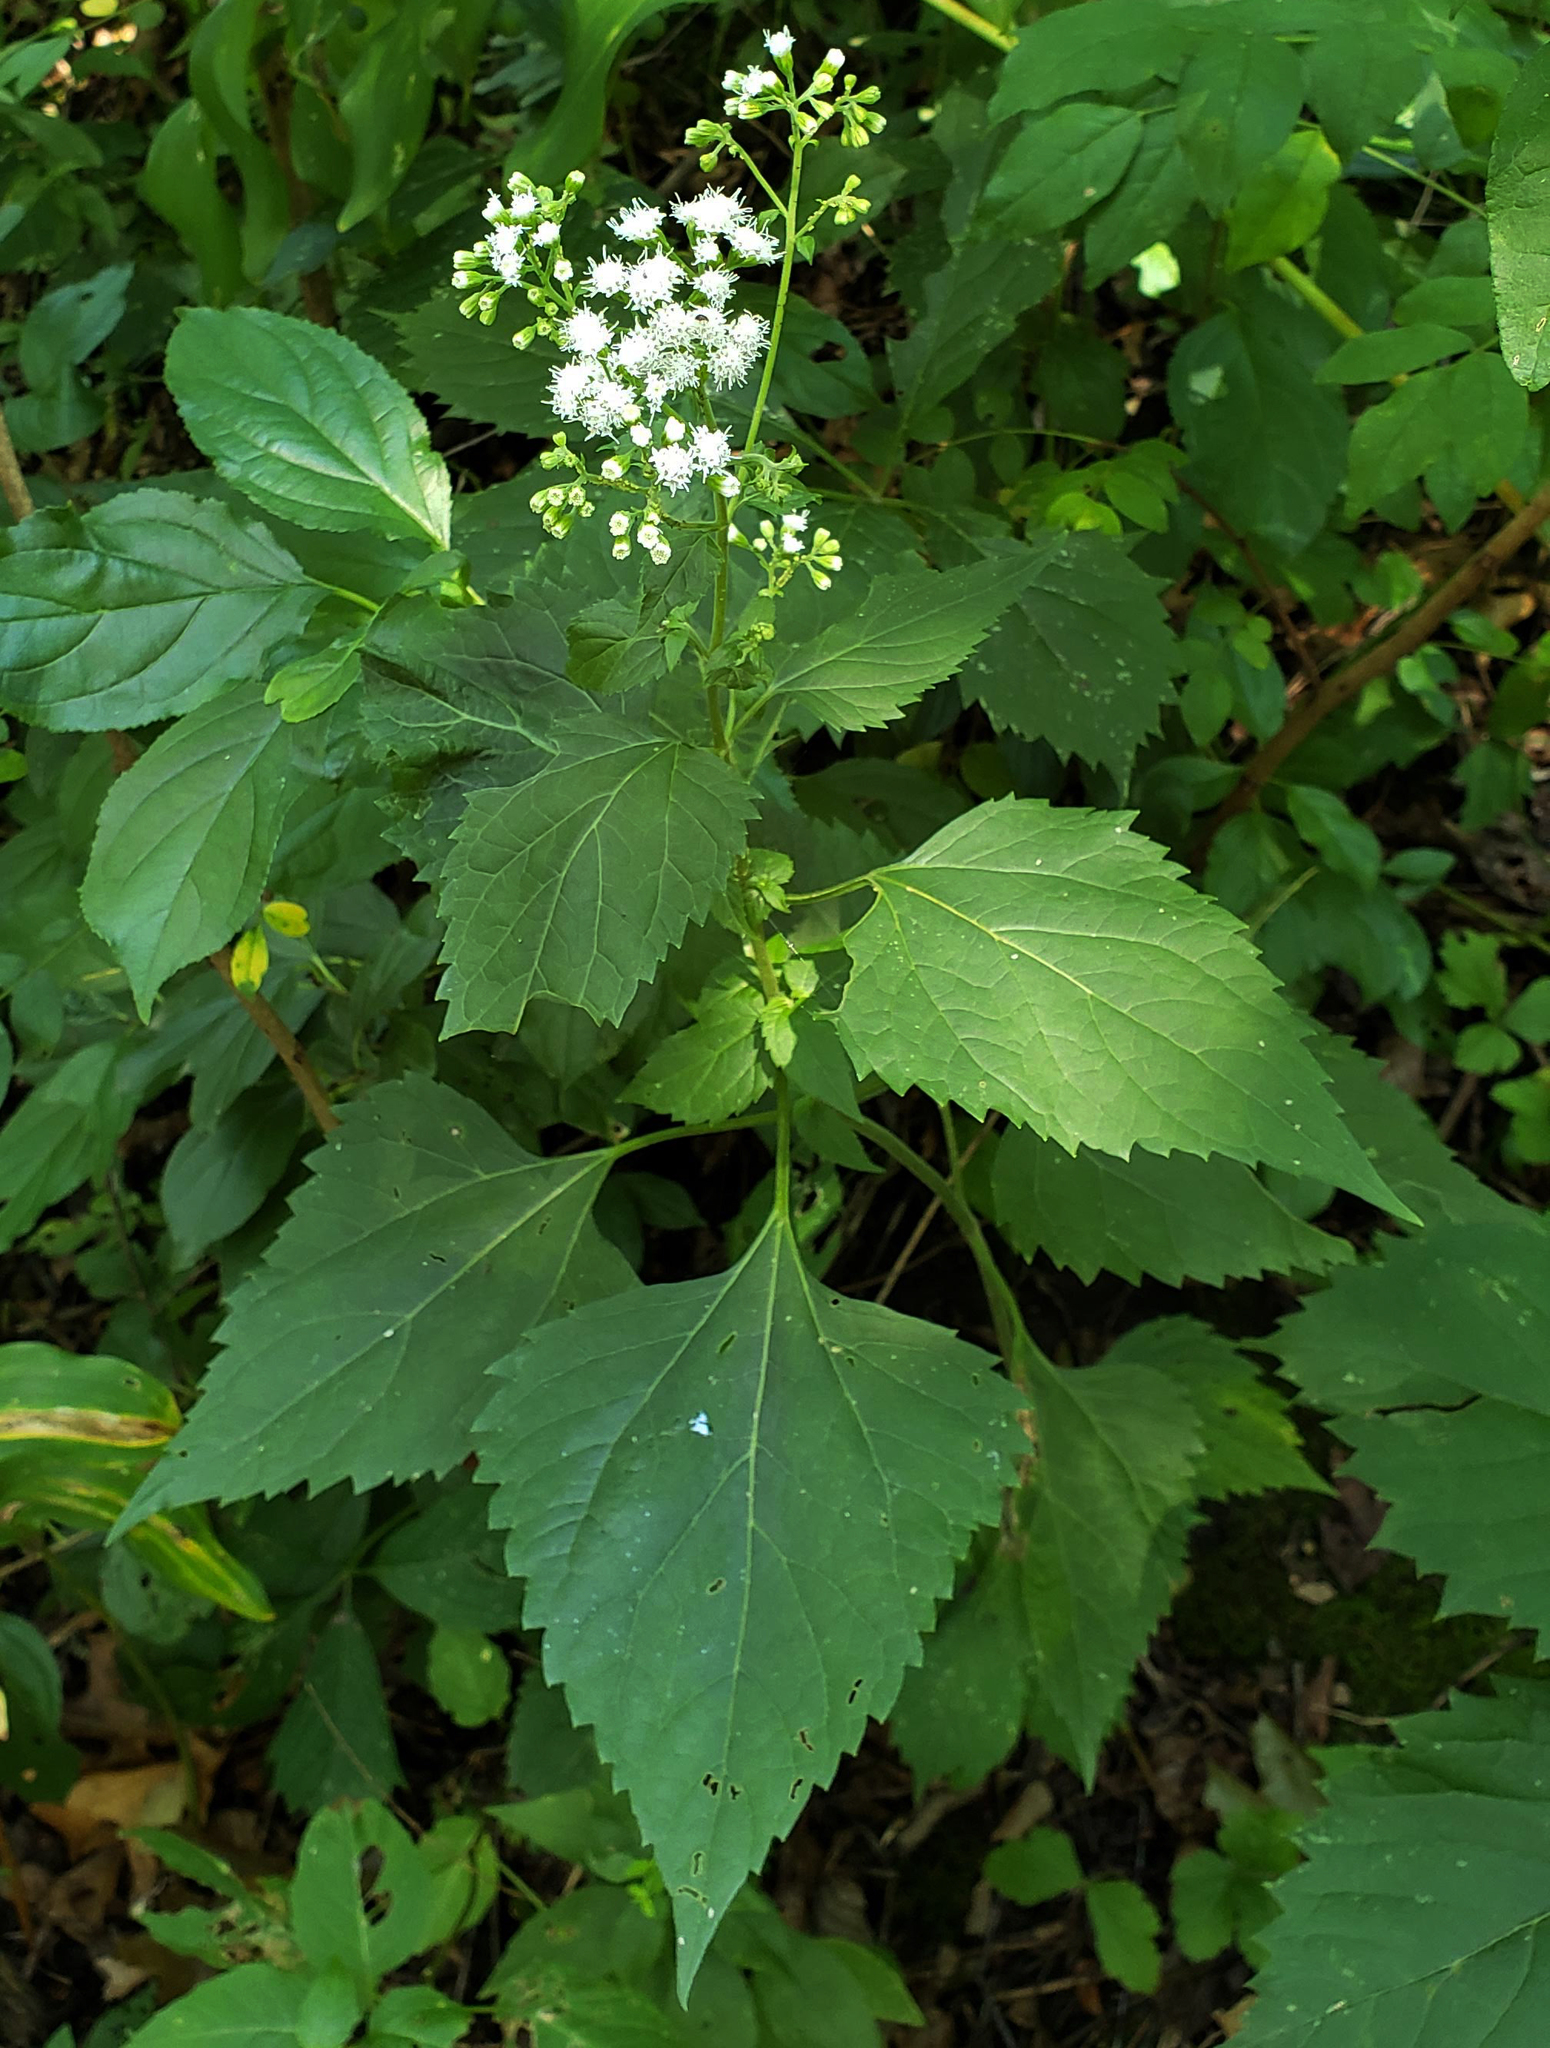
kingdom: Plantae
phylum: Tracheophyta
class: Magnoliopsida
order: Asterales
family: Asteraceae
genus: Ageratina
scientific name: Ageratina altissima
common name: White snakeroot
